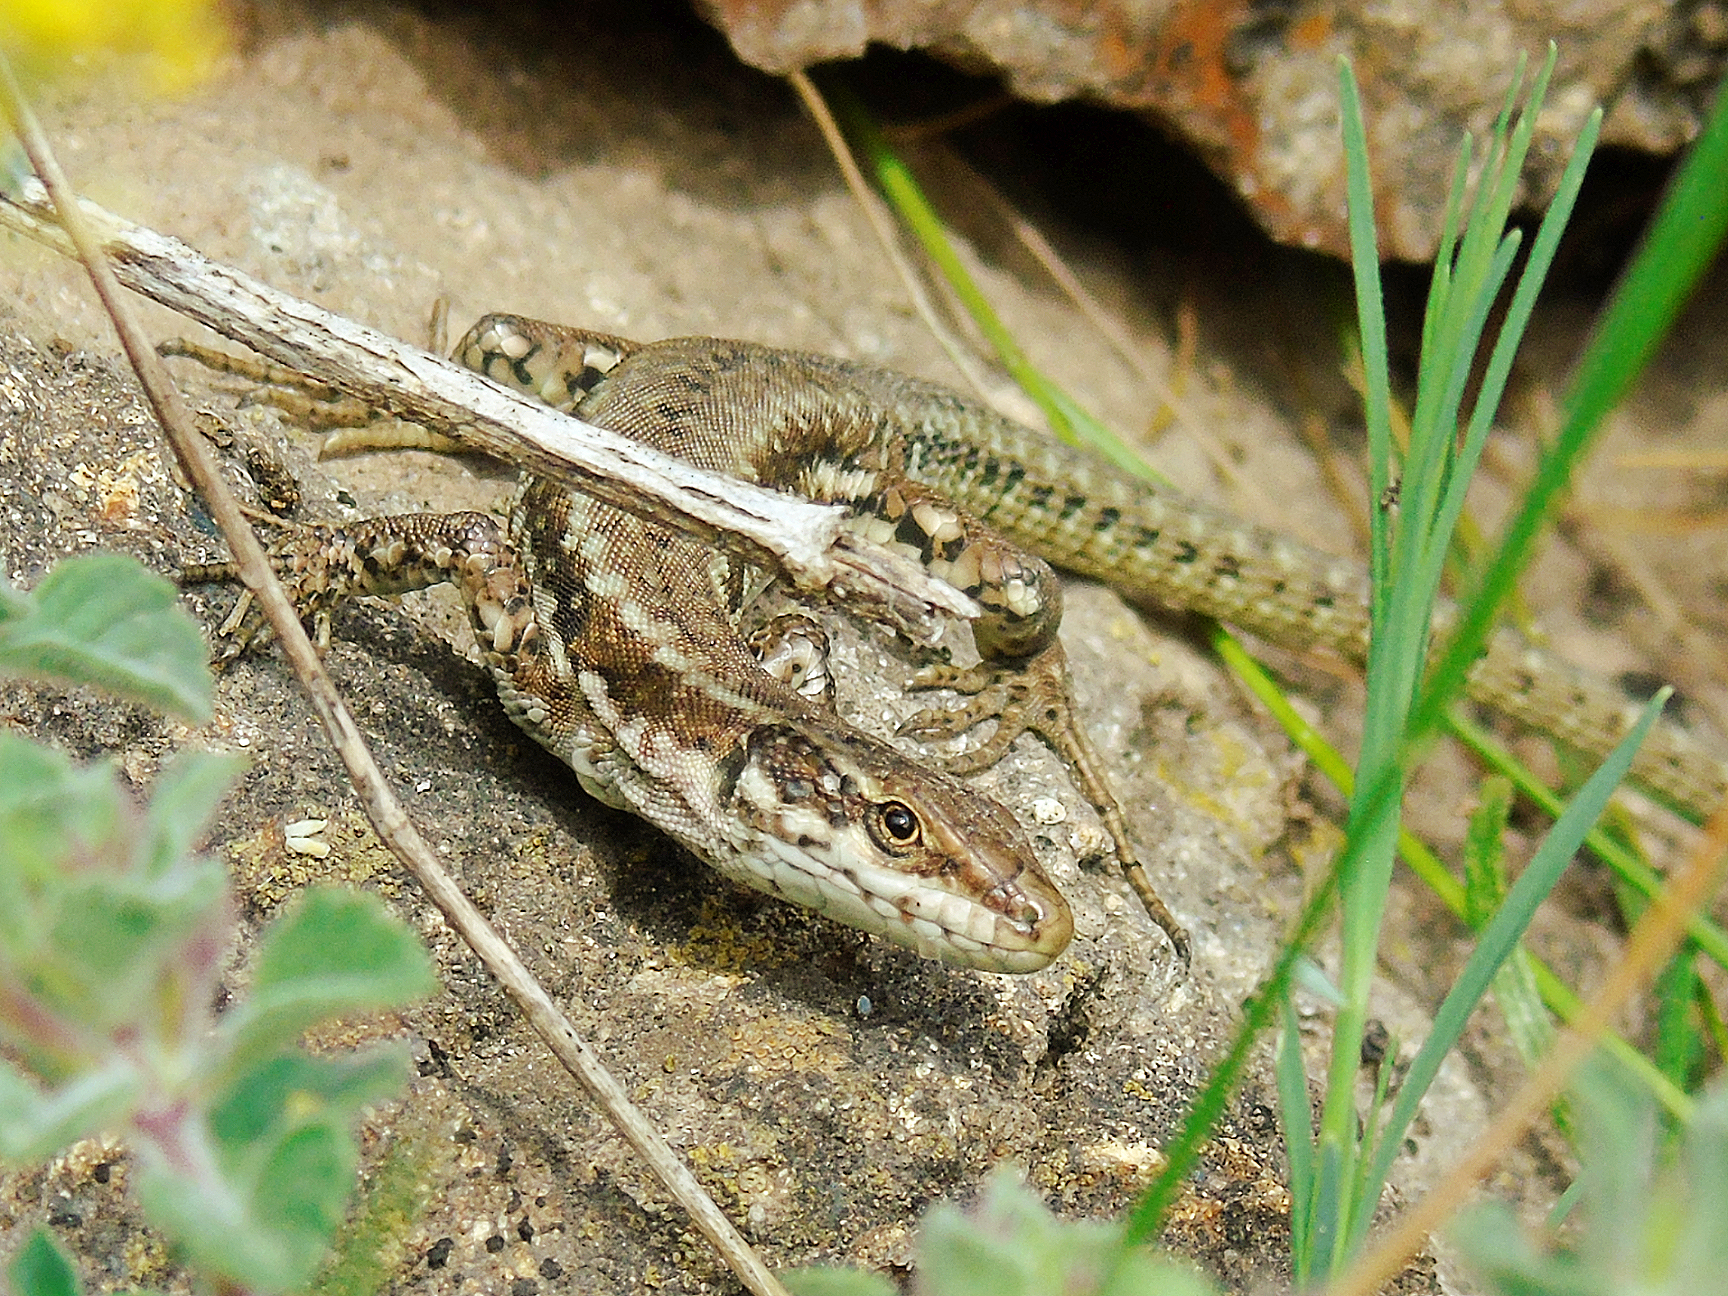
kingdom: Animalia
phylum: Chordata
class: Squamata
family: Lacertidae
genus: Podarcis
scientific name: Podarcis muralis
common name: Common wall lizard
